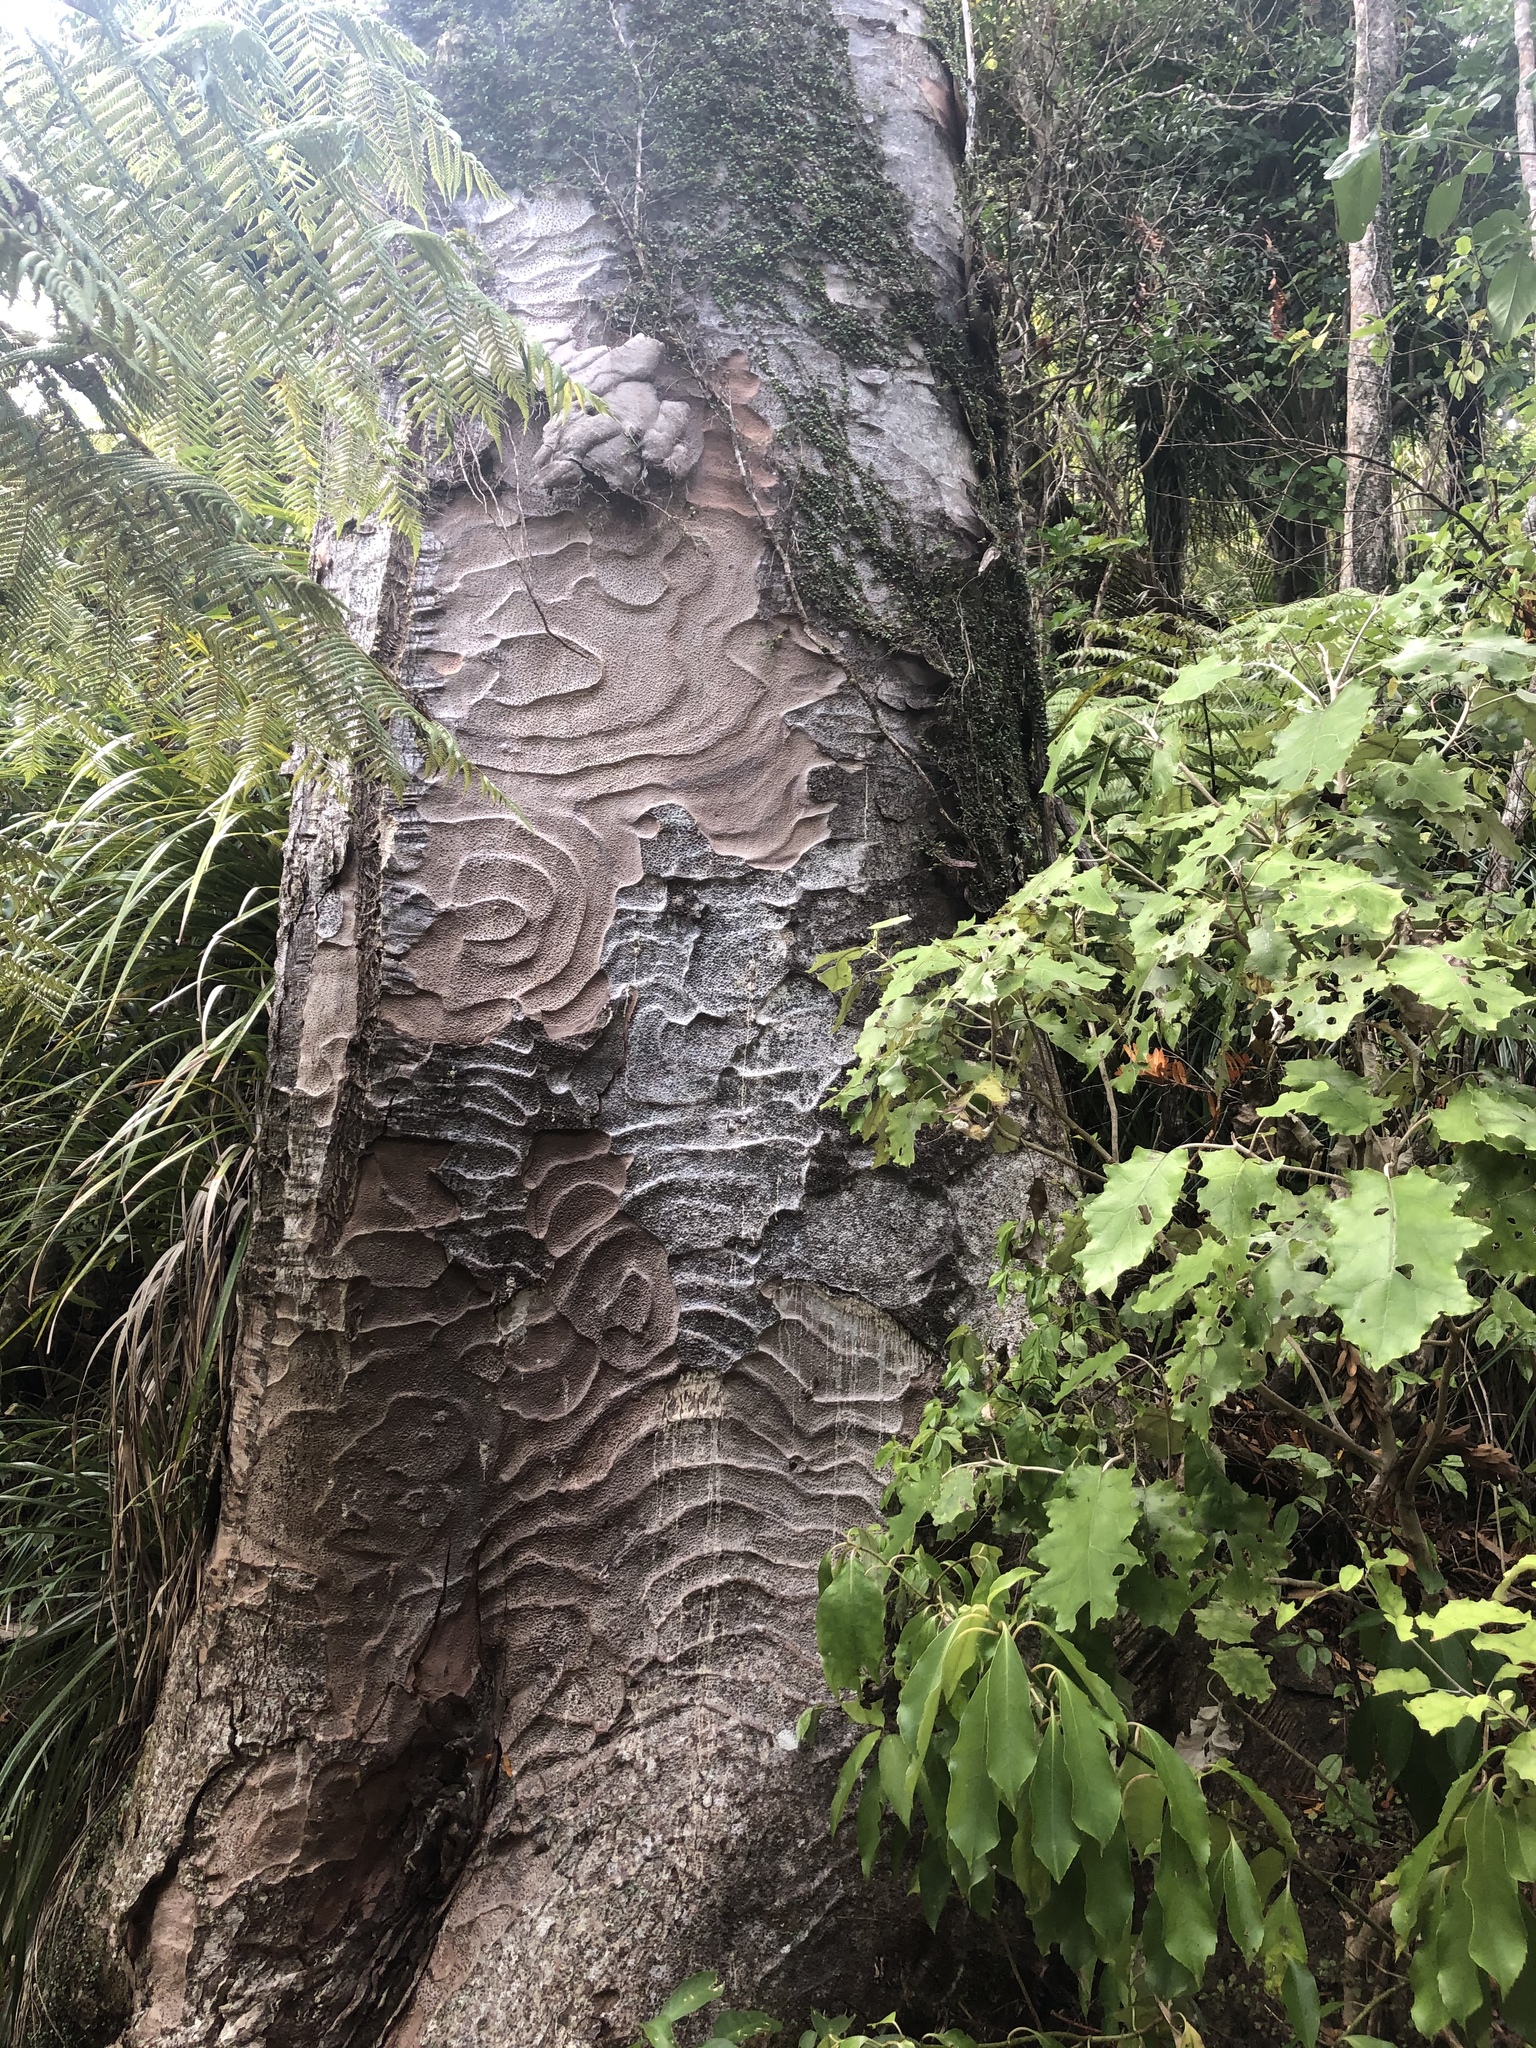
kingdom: Plantae
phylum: Tracheophyta
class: Pinopsida
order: Pinales
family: Araucariaceae
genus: Agathis
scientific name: Agathis australis
